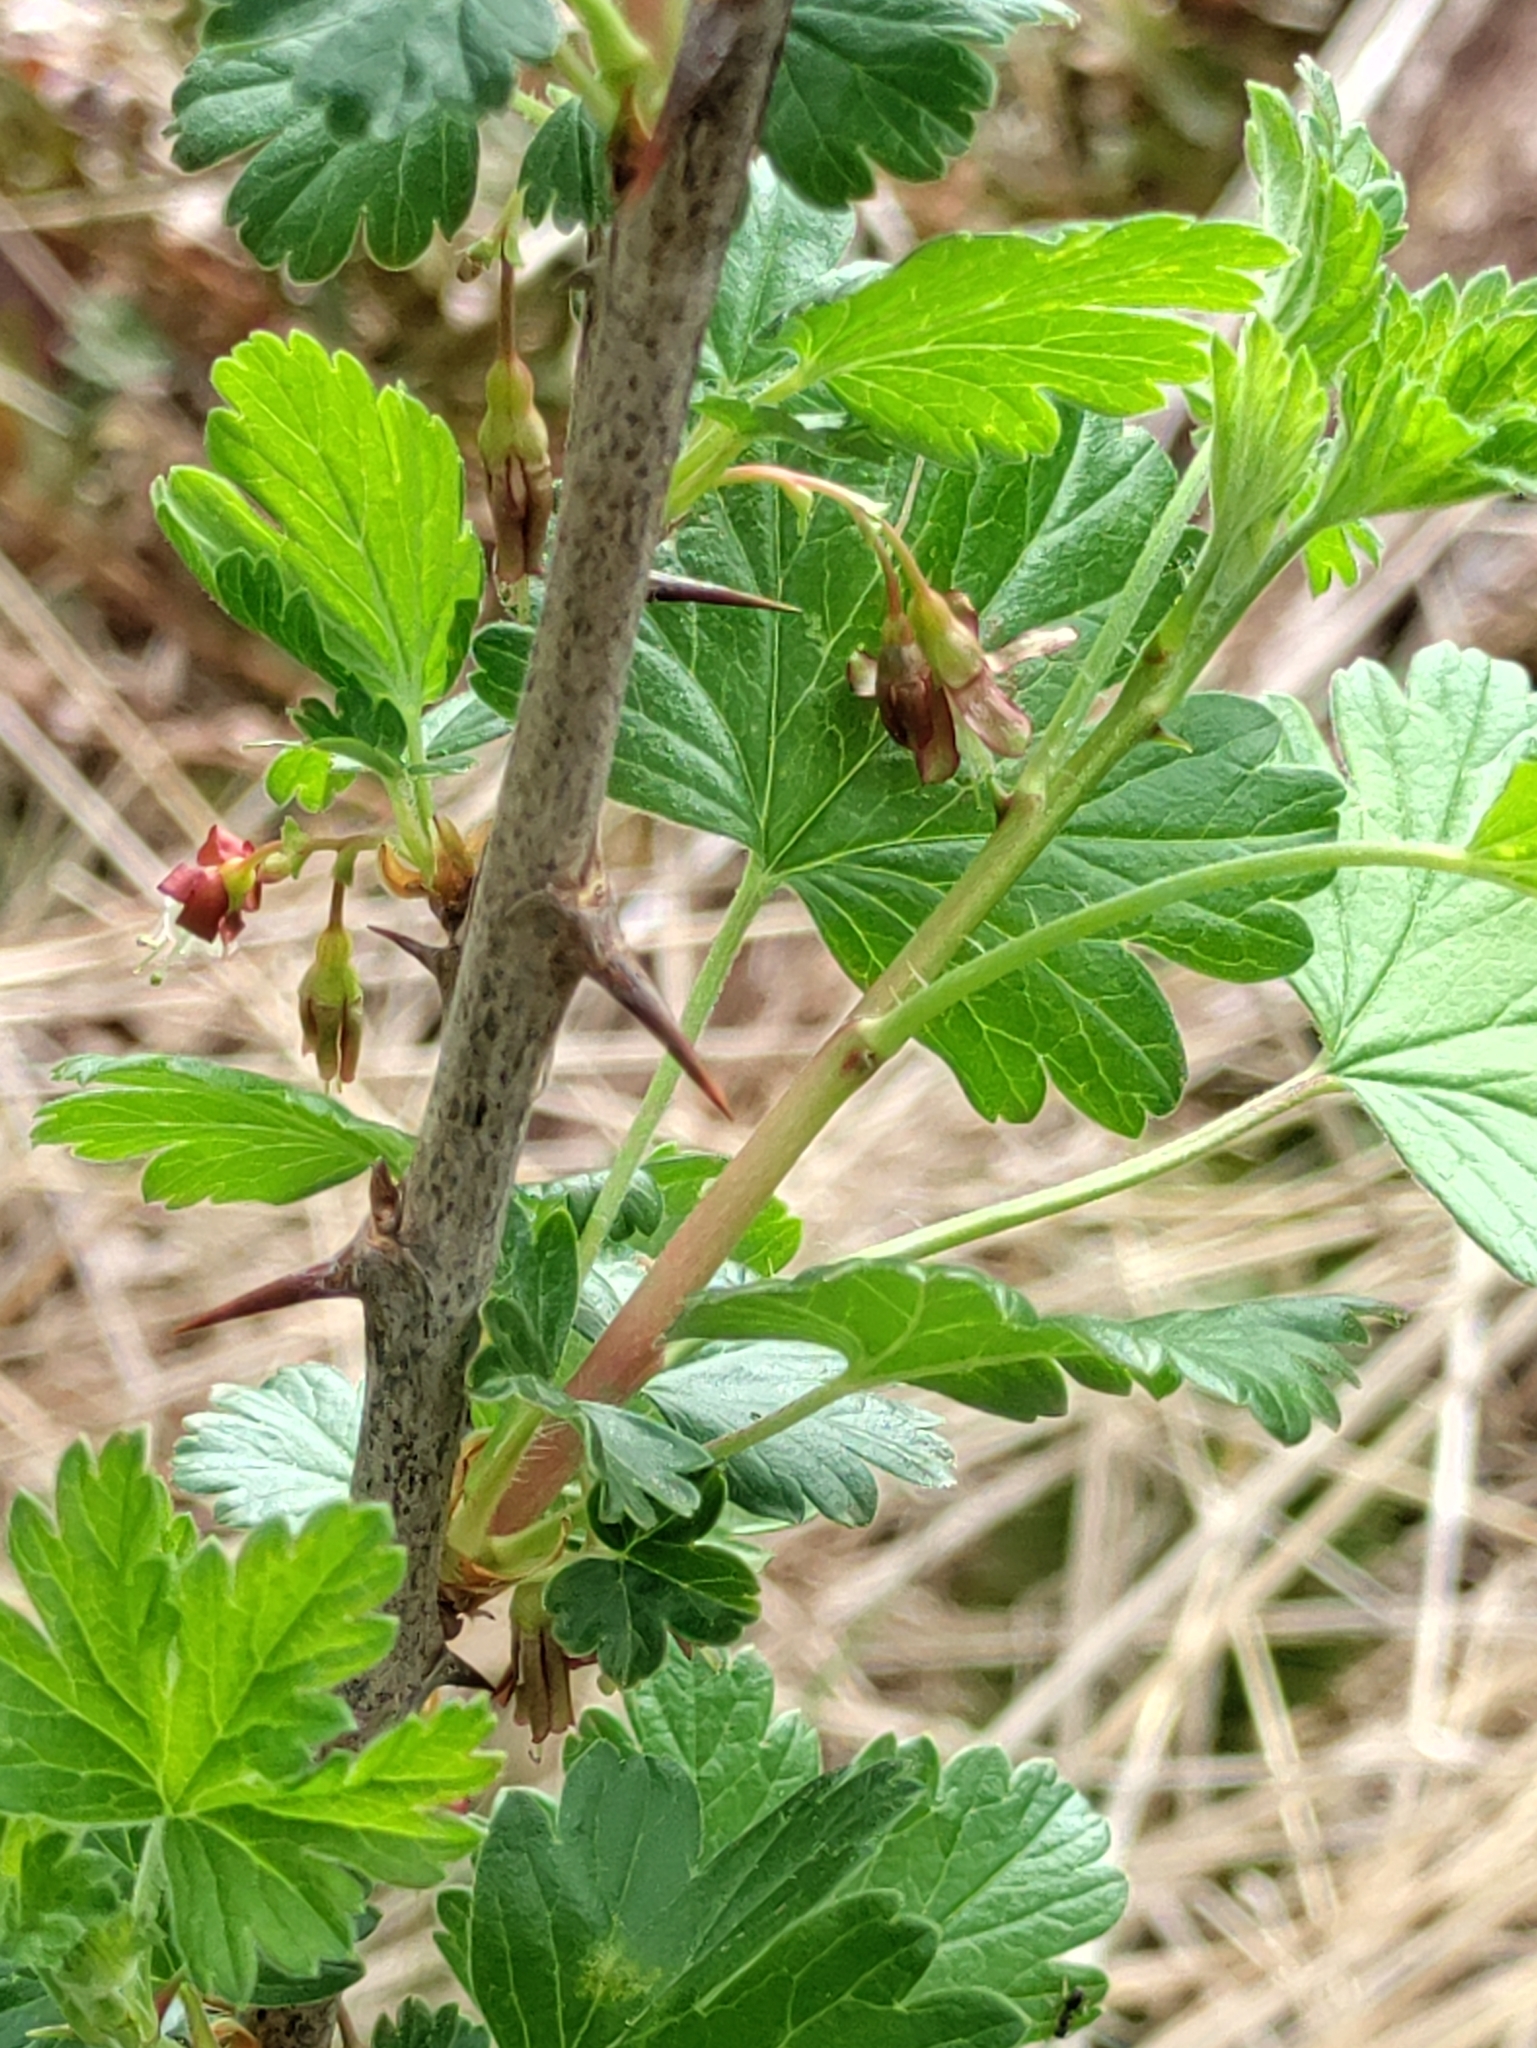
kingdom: Plantae
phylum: Tracheophyta
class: Magnoliopsida
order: Saxifragales
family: Grossulariaceae
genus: Ribes
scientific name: Ribes divaricatum
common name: Wild black gooseberry
